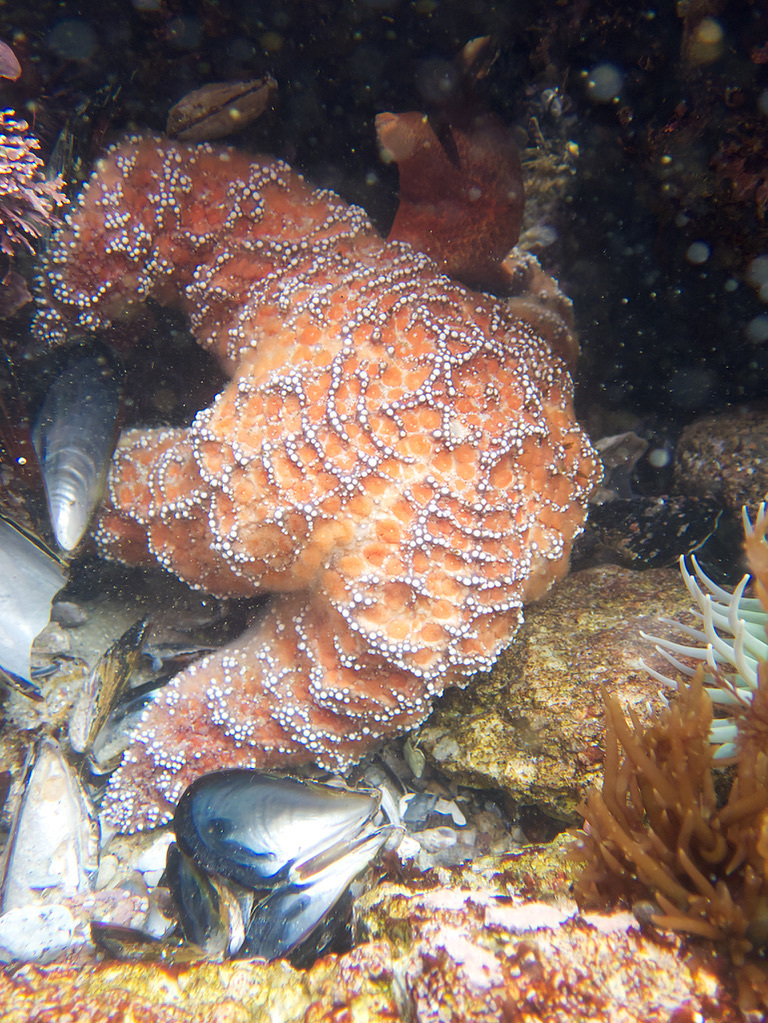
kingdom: Animalia
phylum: Echinodermata
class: Asteroidea
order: Forcipulatida
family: Asteriidae
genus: Pisaster
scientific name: Pisaster ochraceus
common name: Ochre stars
